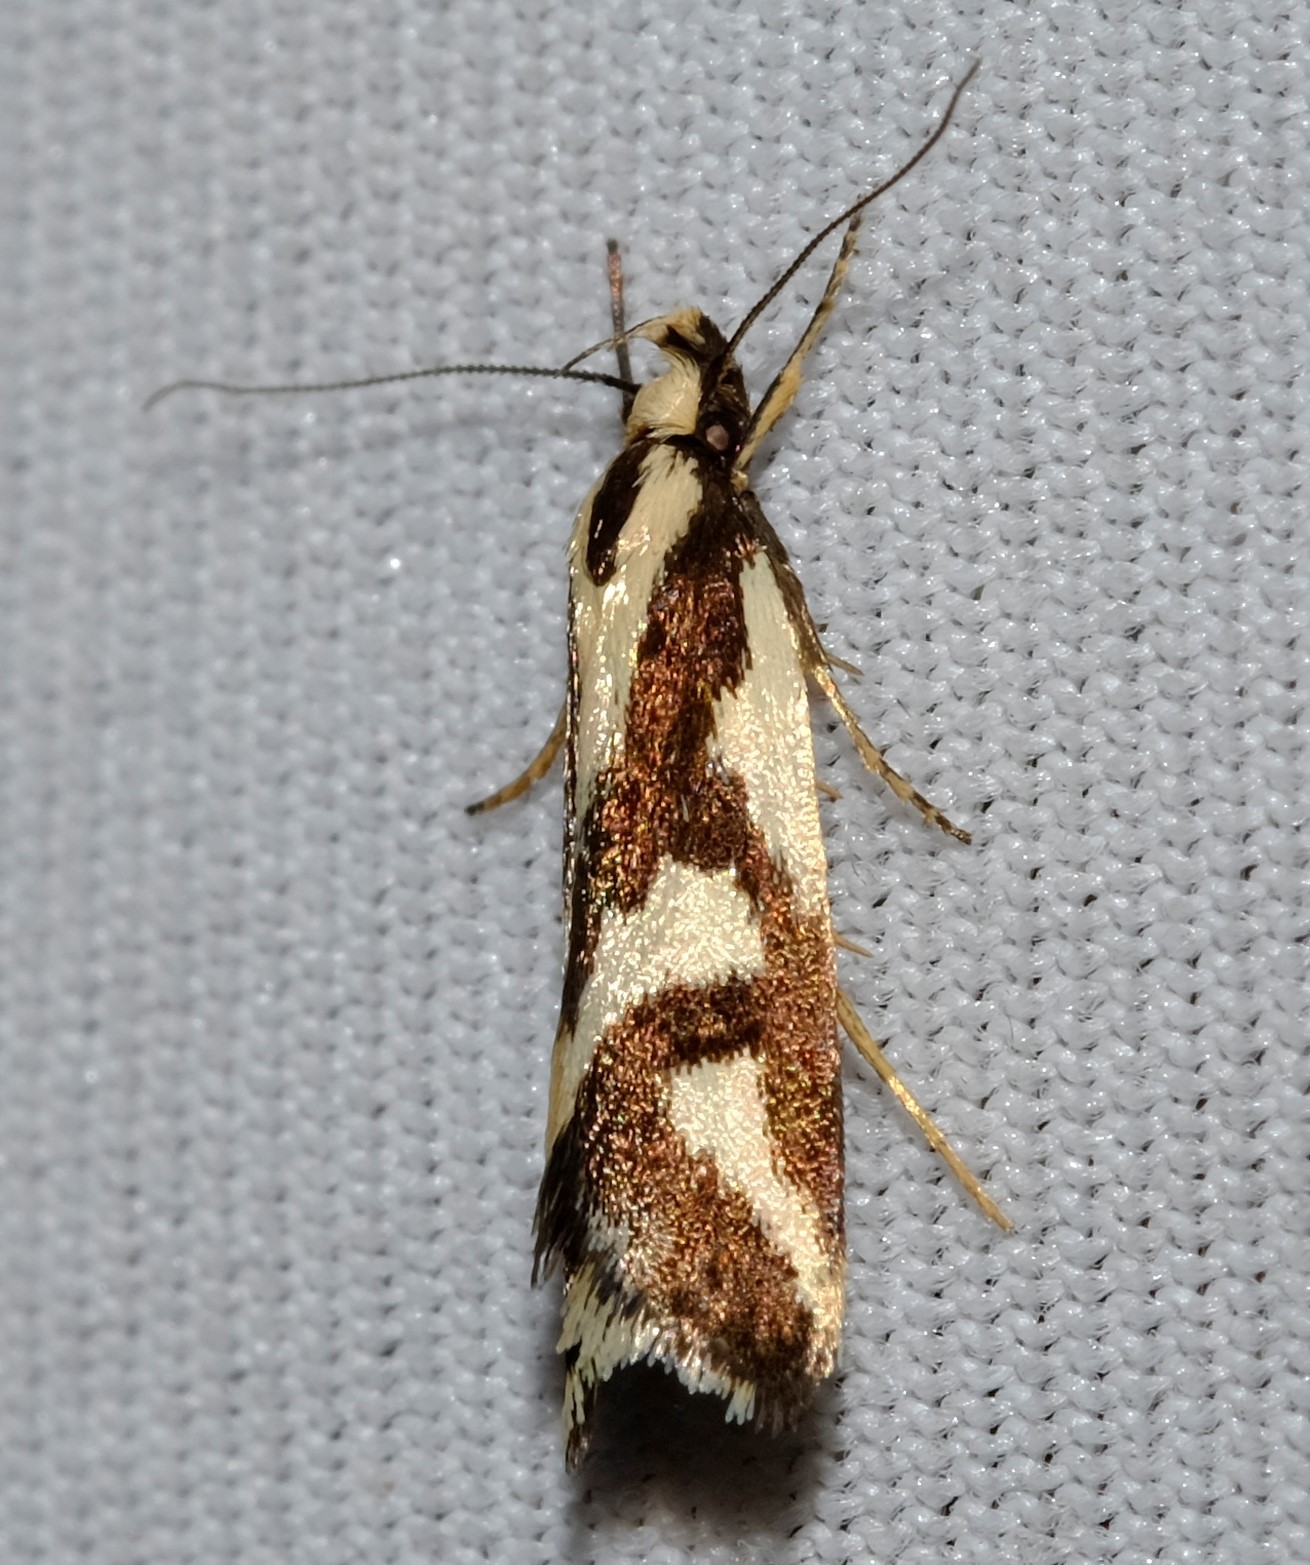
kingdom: Animalia
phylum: Arthropoda
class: Insecta
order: Lepidoptera
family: Oecophoridae
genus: Epithymema
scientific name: Epithymema incomposita
